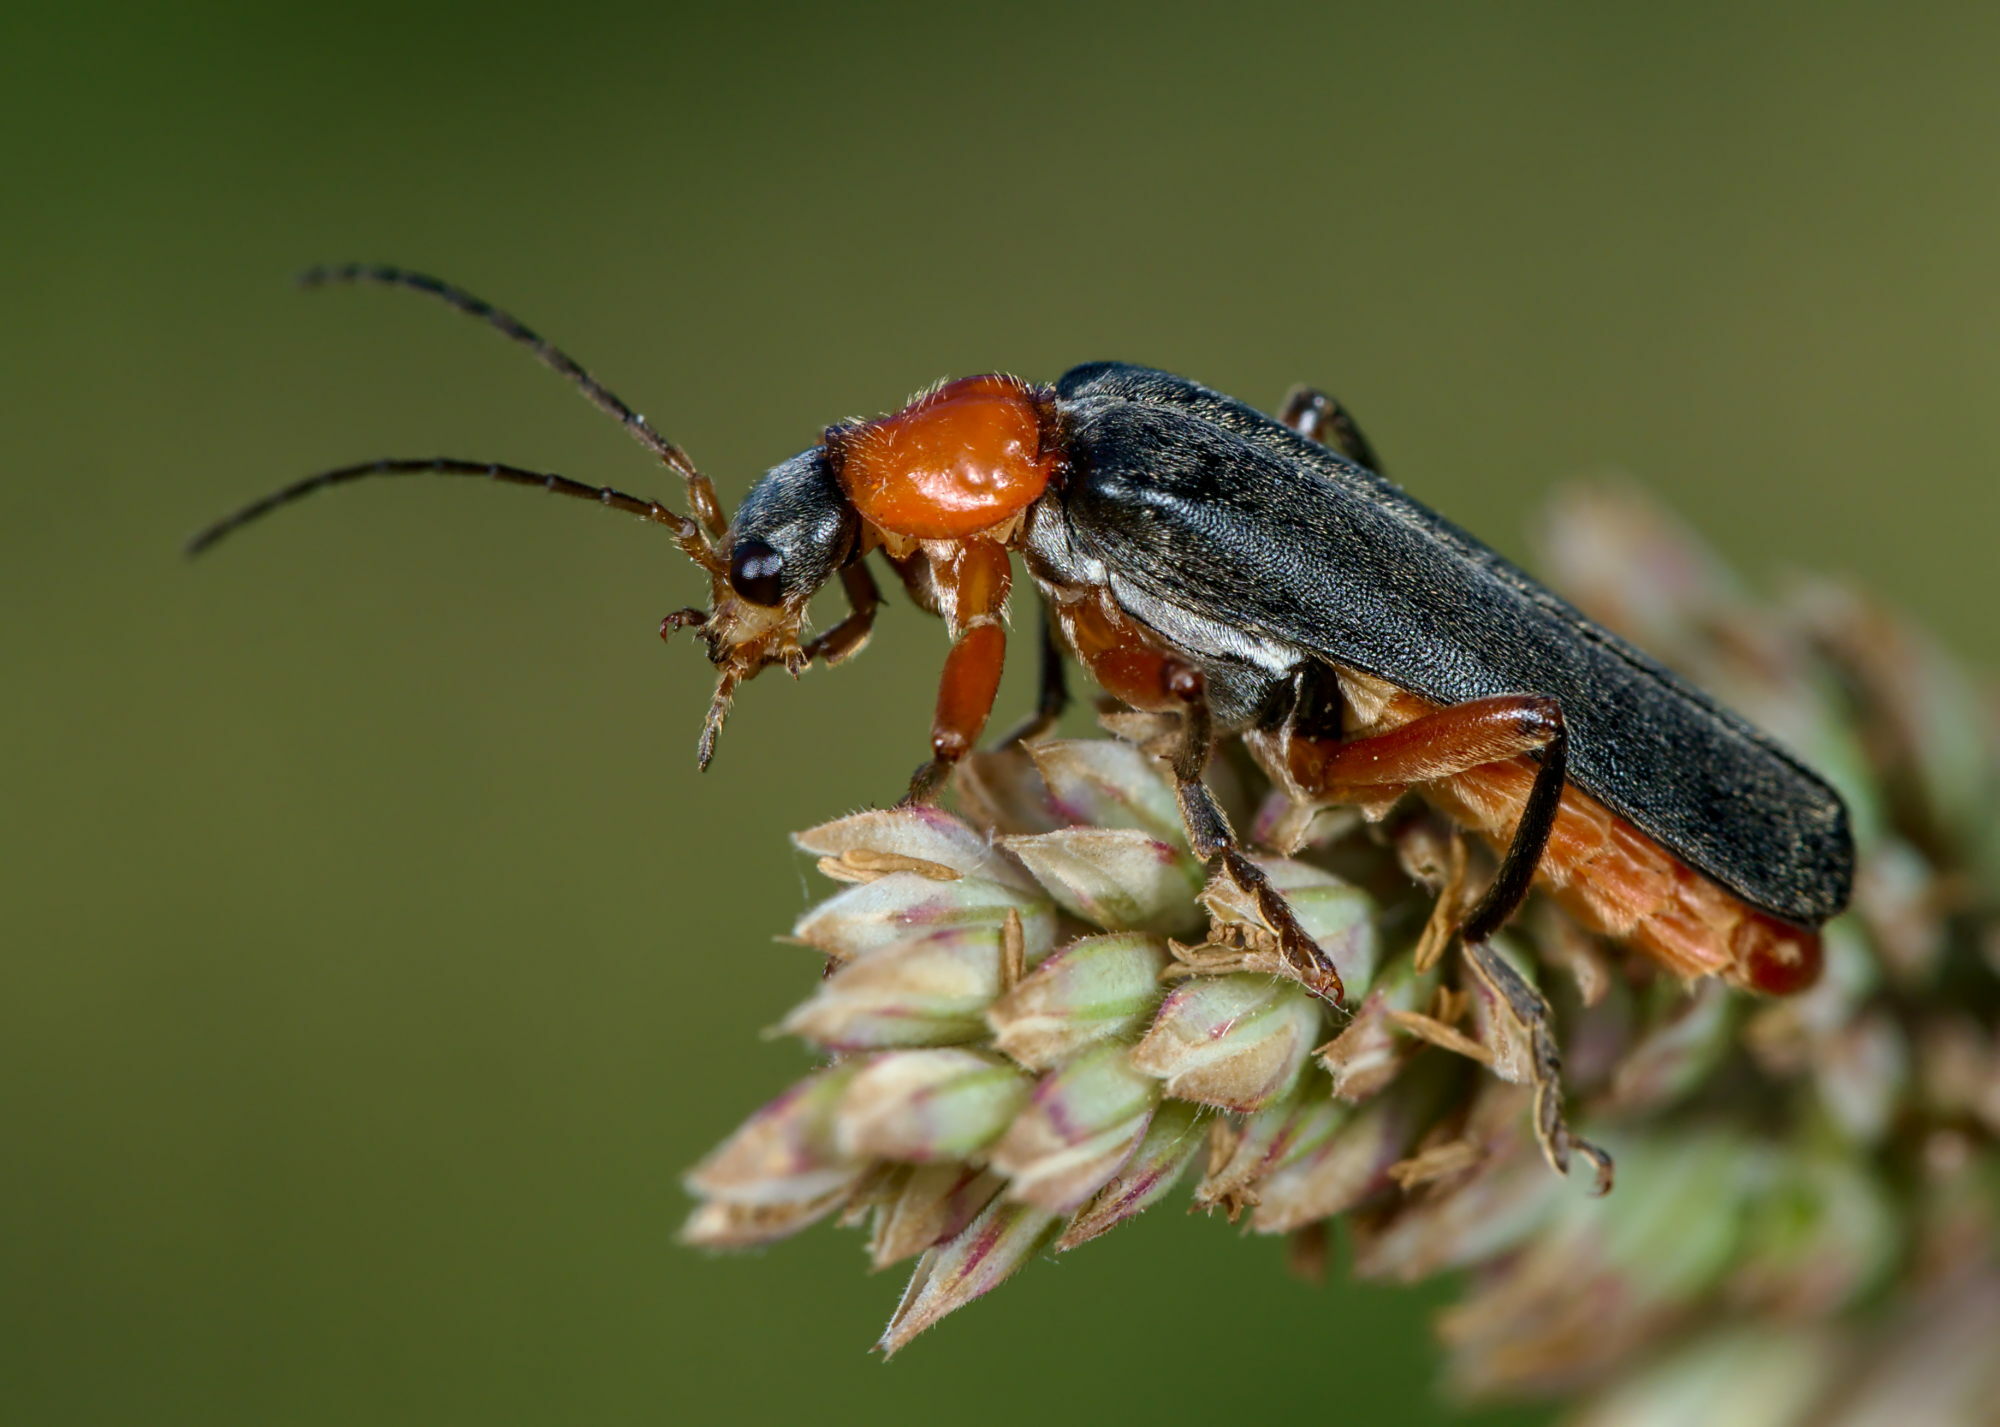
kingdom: Animalia
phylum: Arthropoda
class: Insecta
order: Coleoptera
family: Cantharidae
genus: Cantharis
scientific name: Cantharis pellucida
